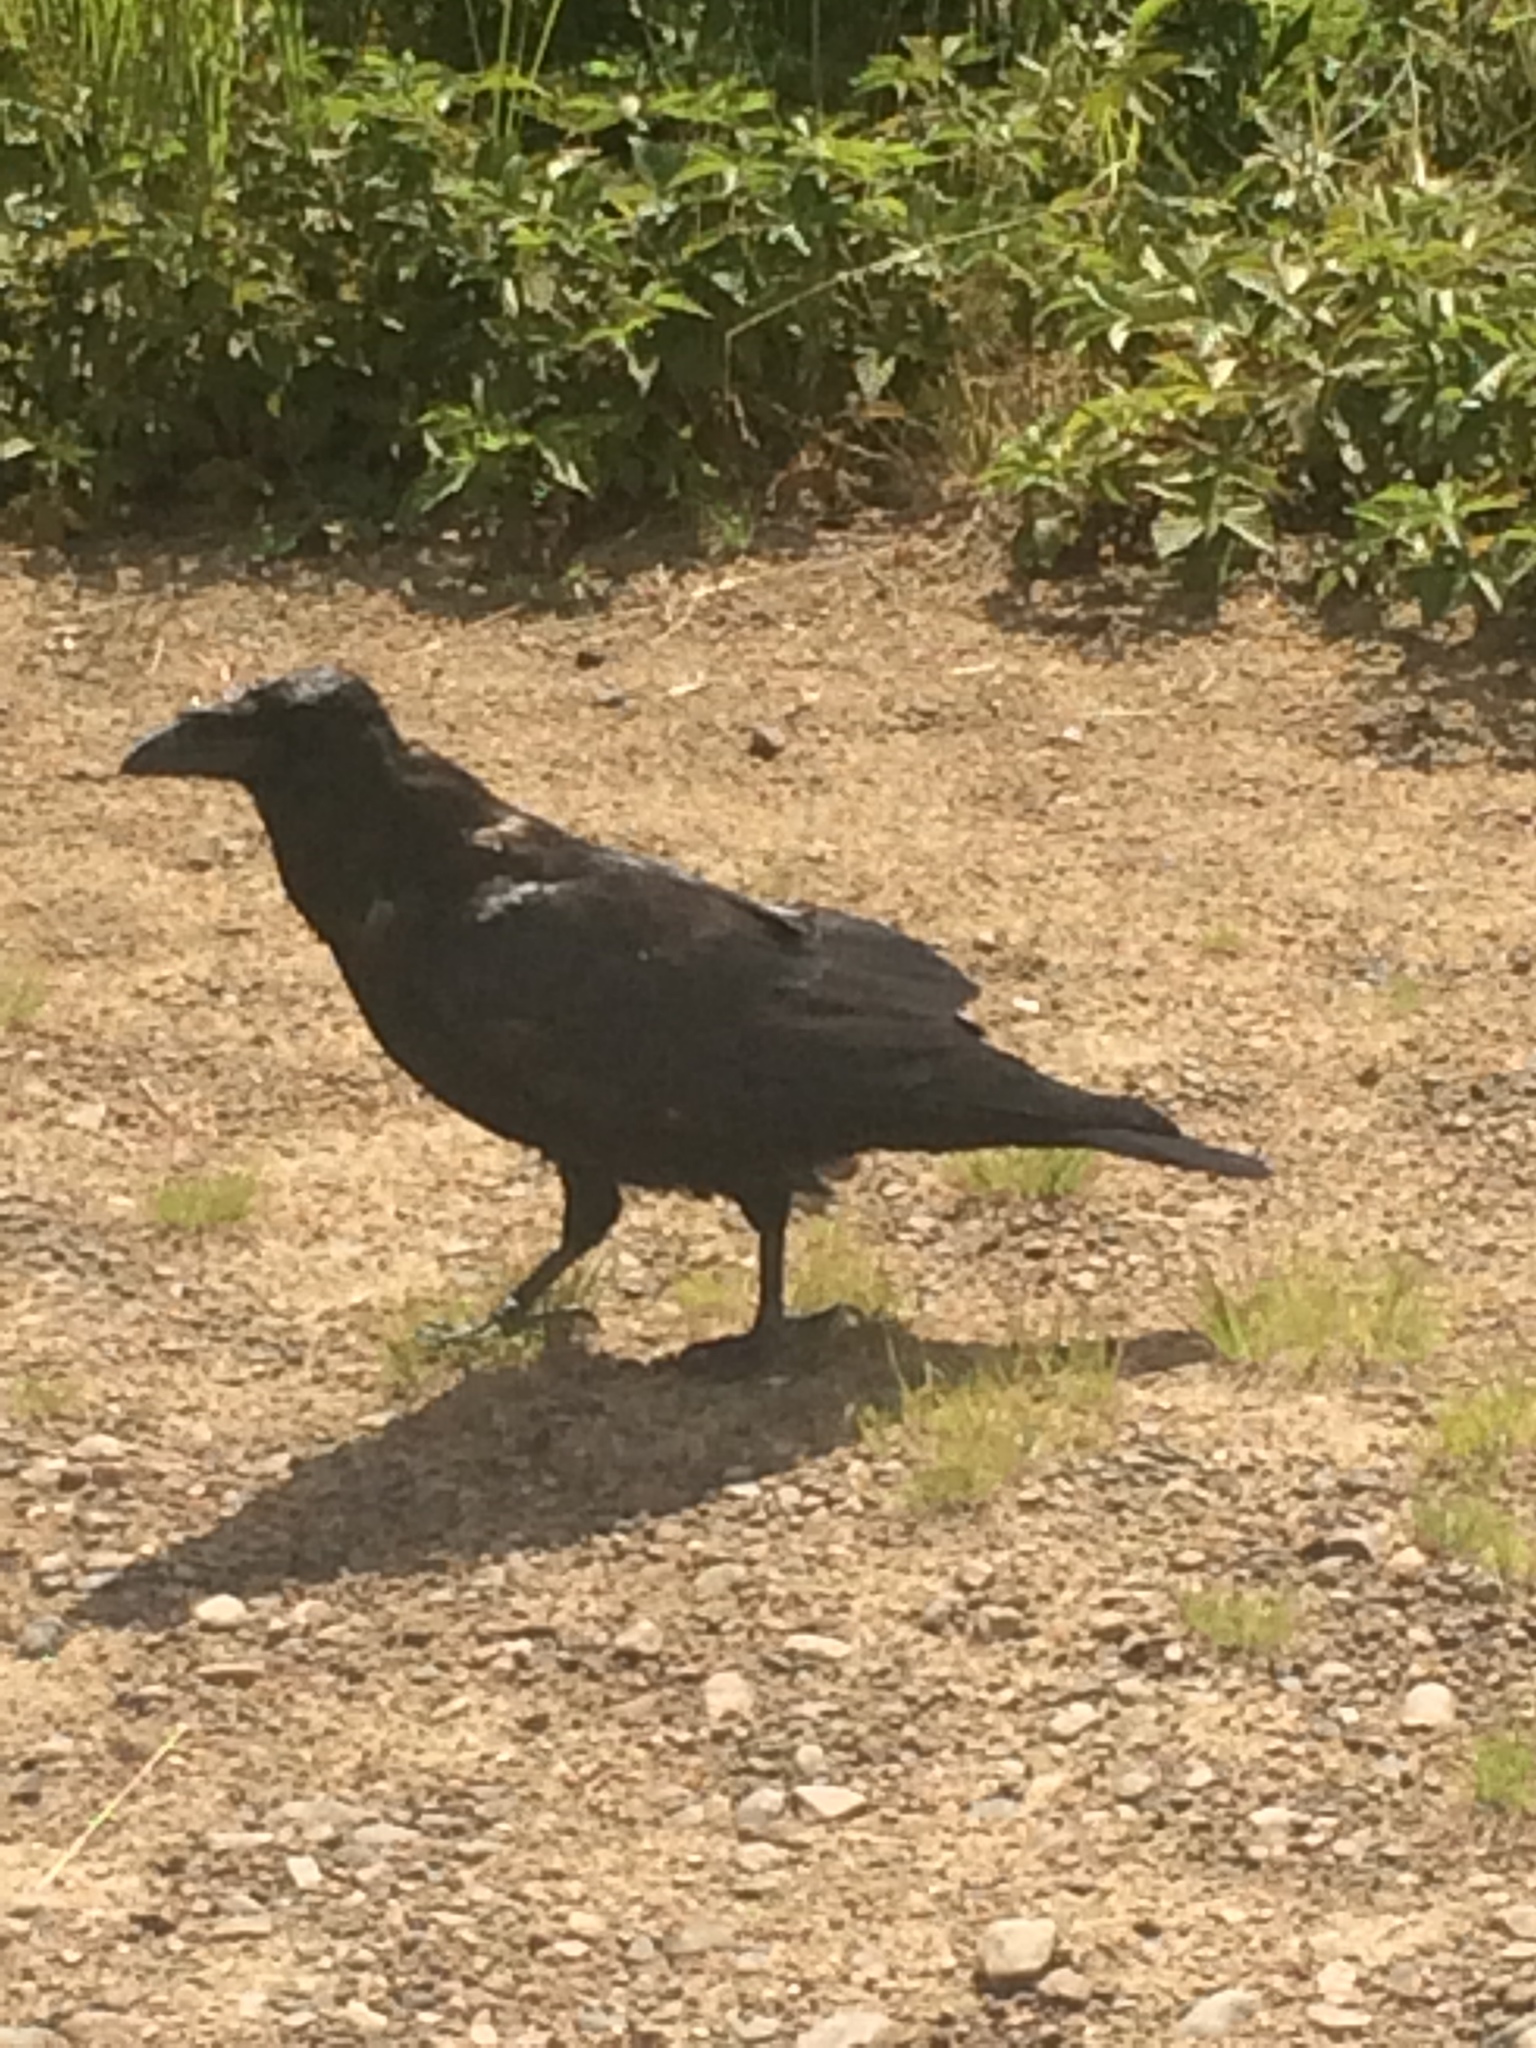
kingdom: Animalia
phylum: Chordata
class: Aves
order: Passeriformes
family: Corvidae
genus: Corvus
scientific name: Corvus corax
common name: Common raven
